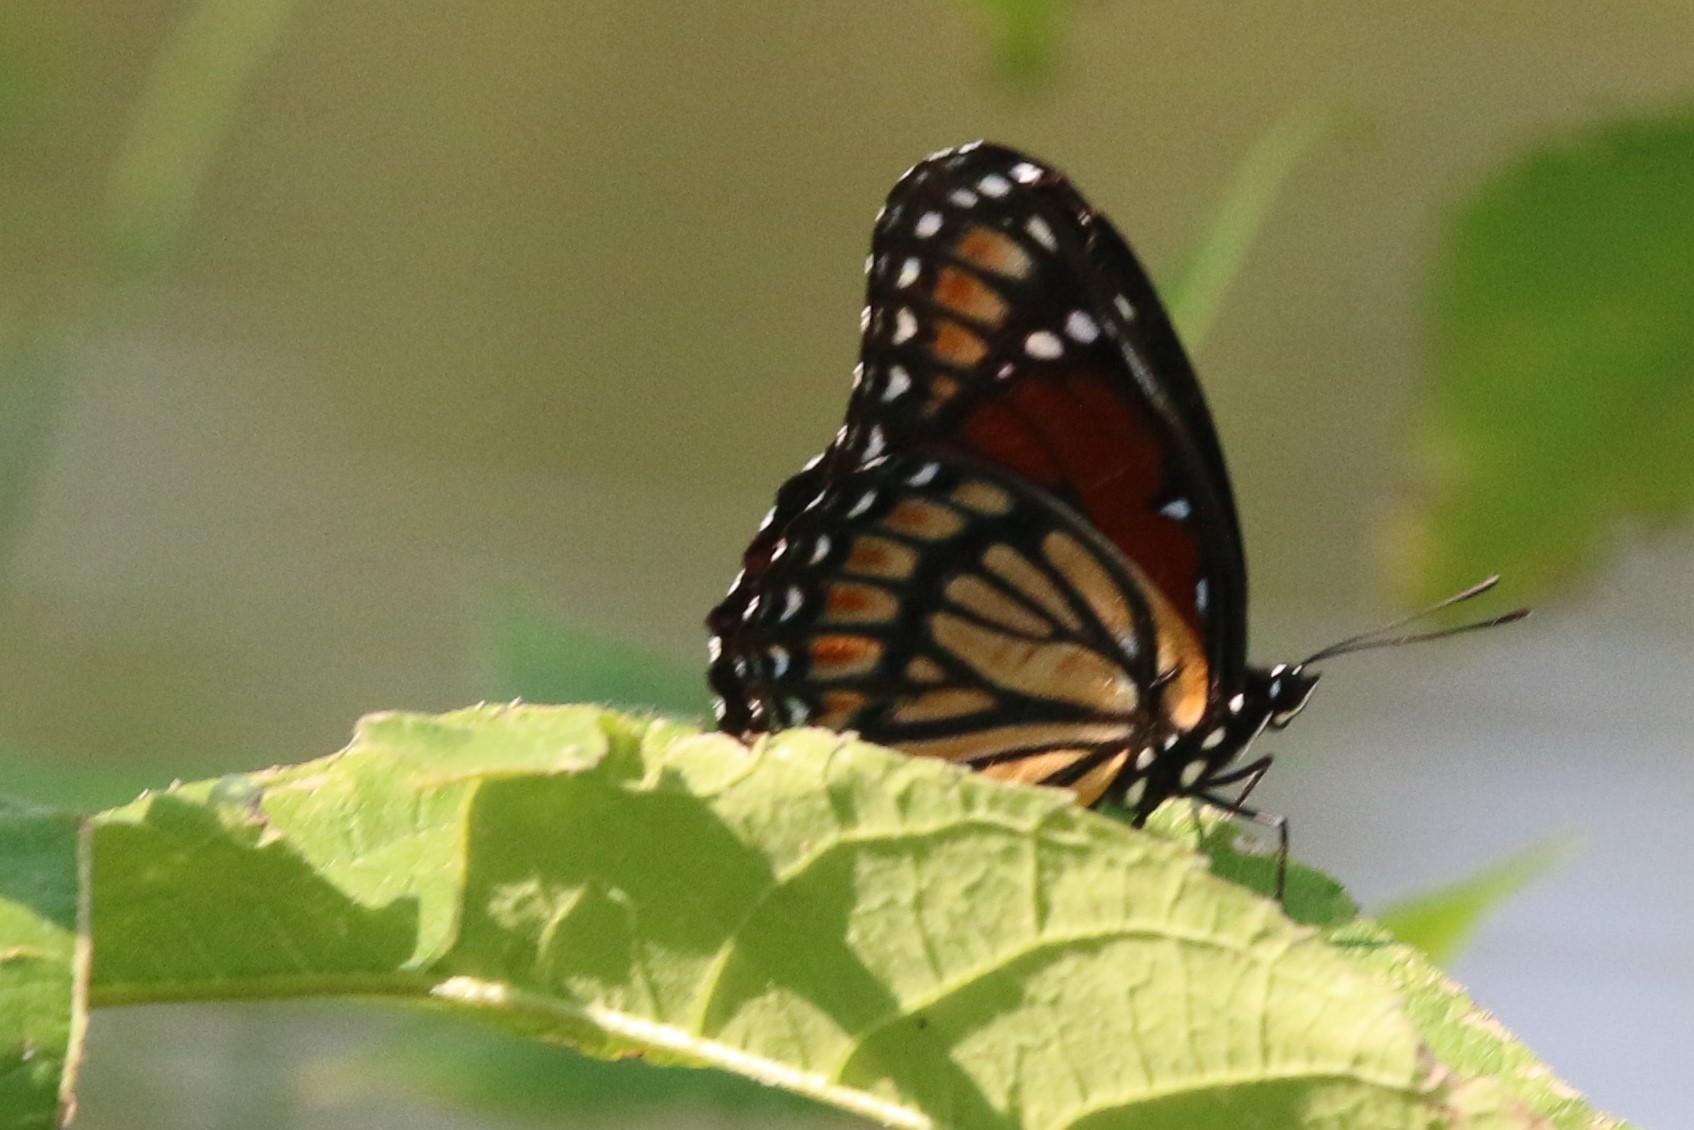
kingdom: Animalia
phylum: Arthropoda
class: Insecta
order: Lepidoptera
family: Nymphalidae
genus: Limenitis
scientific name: Limenitis archippus
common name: Viceroy
